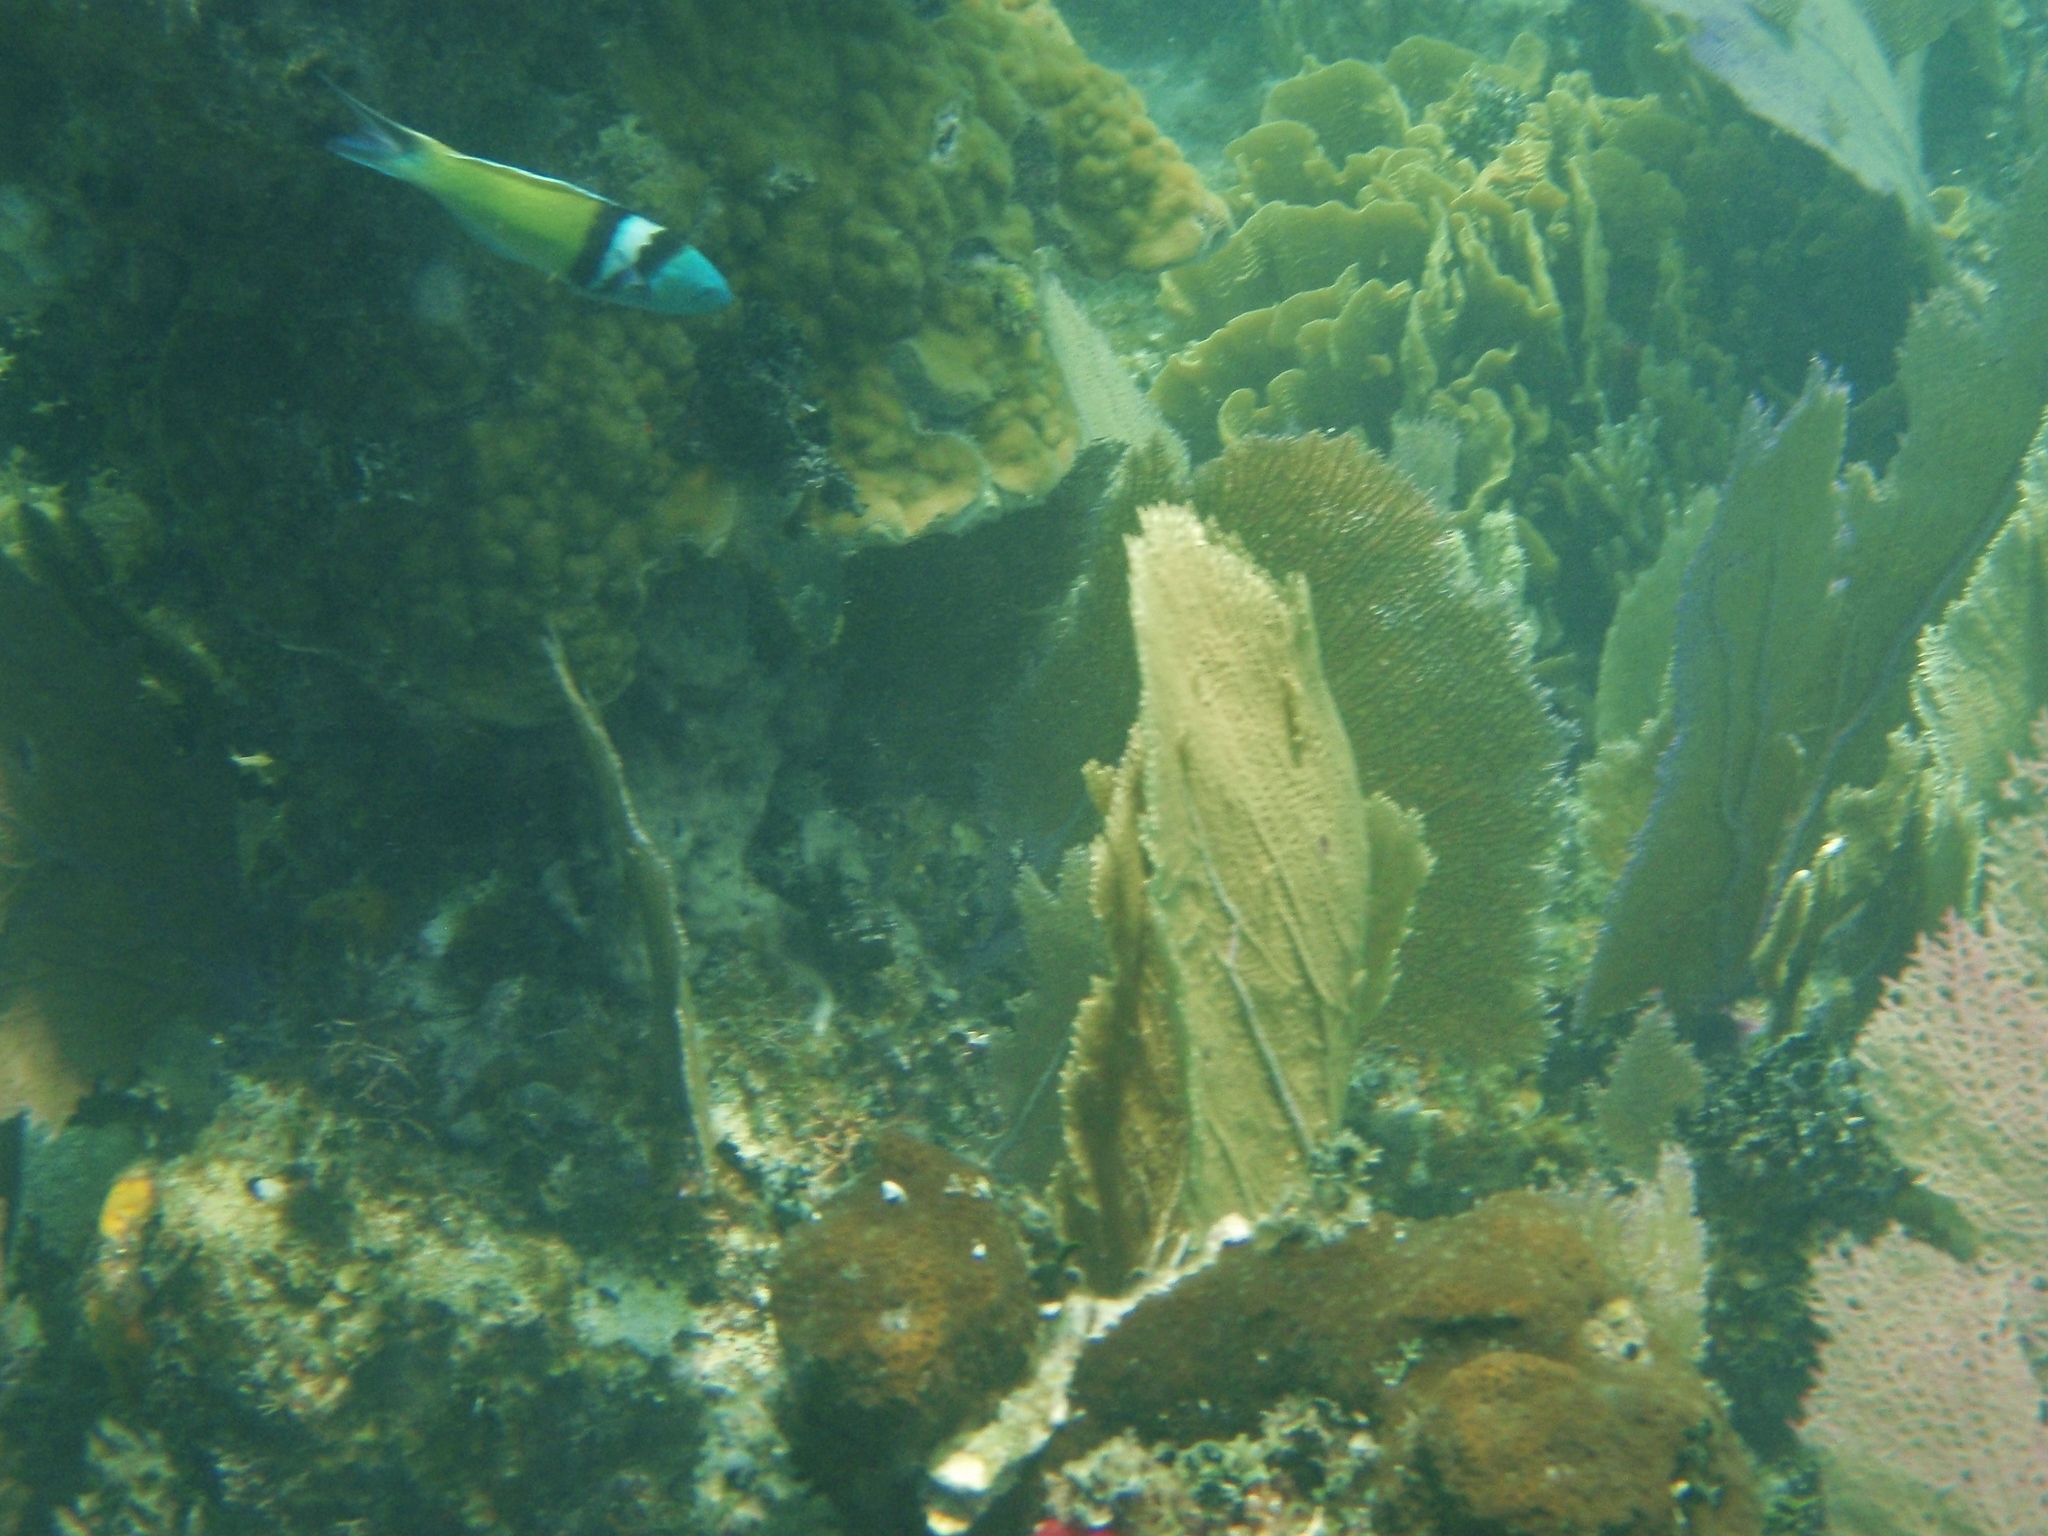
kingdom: Animalia
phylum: Chordata
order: Perciformes
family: Labridae
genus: Thalassoma
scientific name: Thalassoma bifasciatum
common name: Bluehead wrasse
